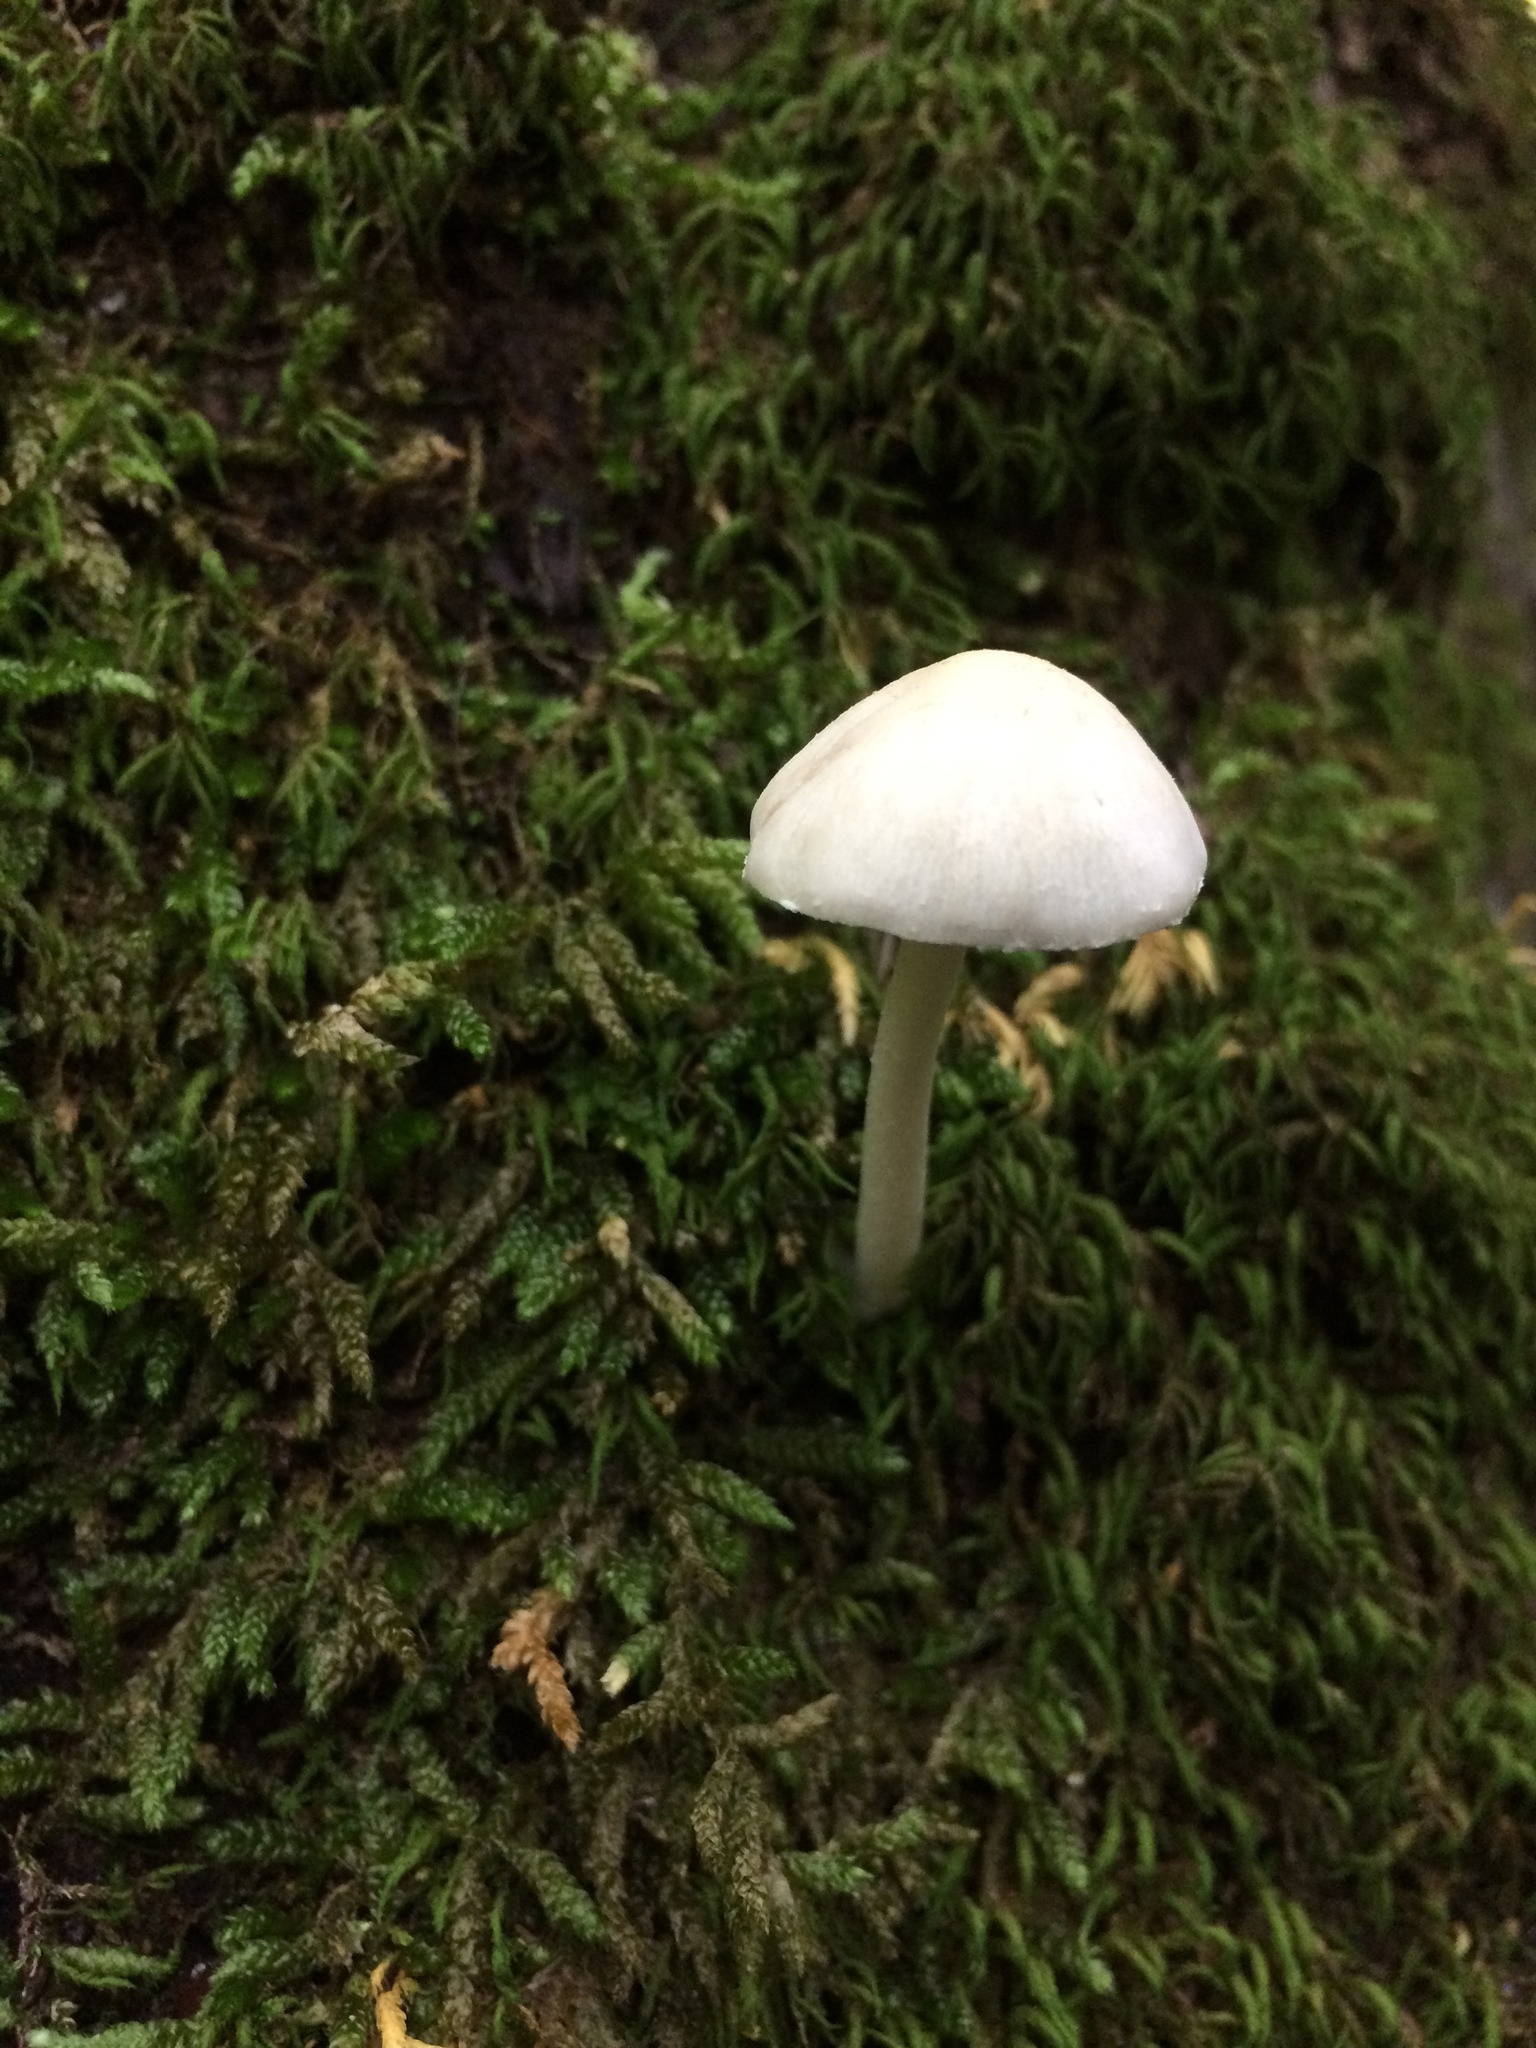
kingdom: Fungi
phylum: Basidiomycota
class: Agaricomycetes
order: Agaricales
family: Psathyrellaceae
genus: Candolleomyces
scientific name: Candolleomyces candolleanus
